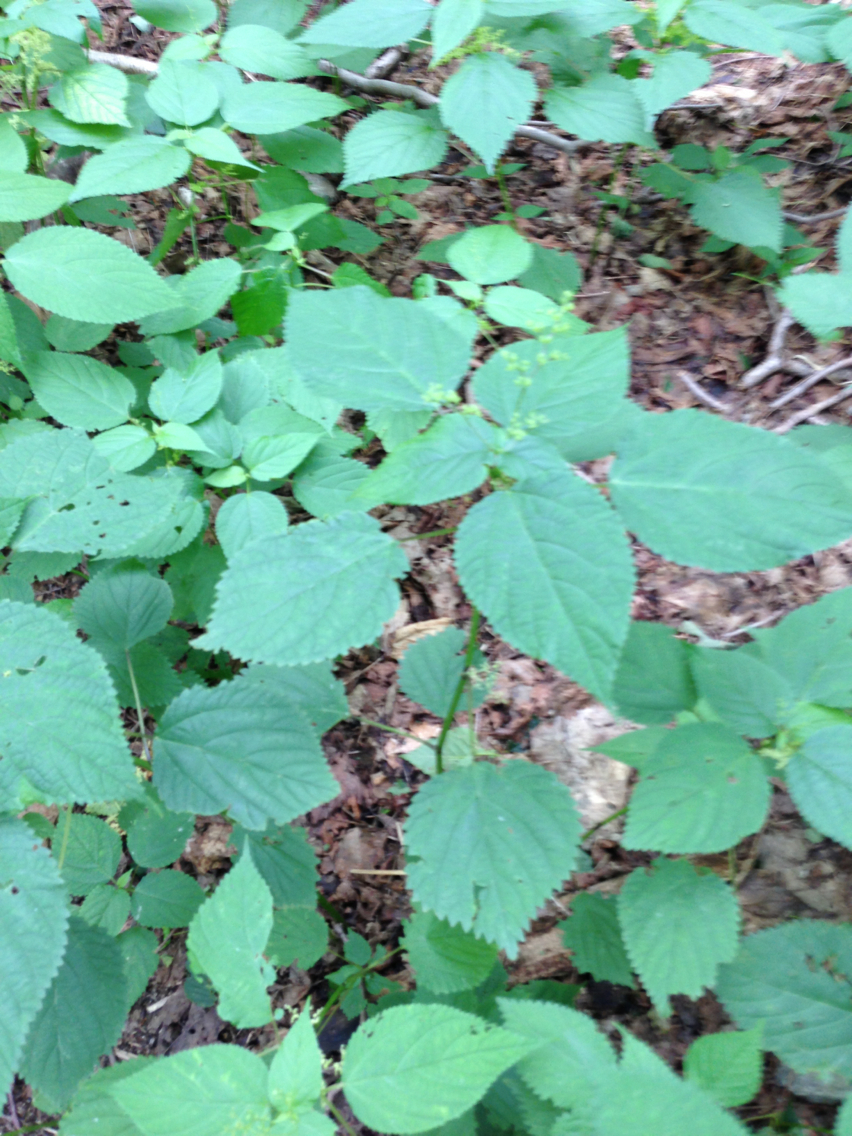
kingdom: Plantae
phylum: Tracheophyta
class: Magnoliopsida
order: Rosales
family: Urticaceae
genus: Laportea
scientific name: Laportea canadensis
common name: Canada nettle
